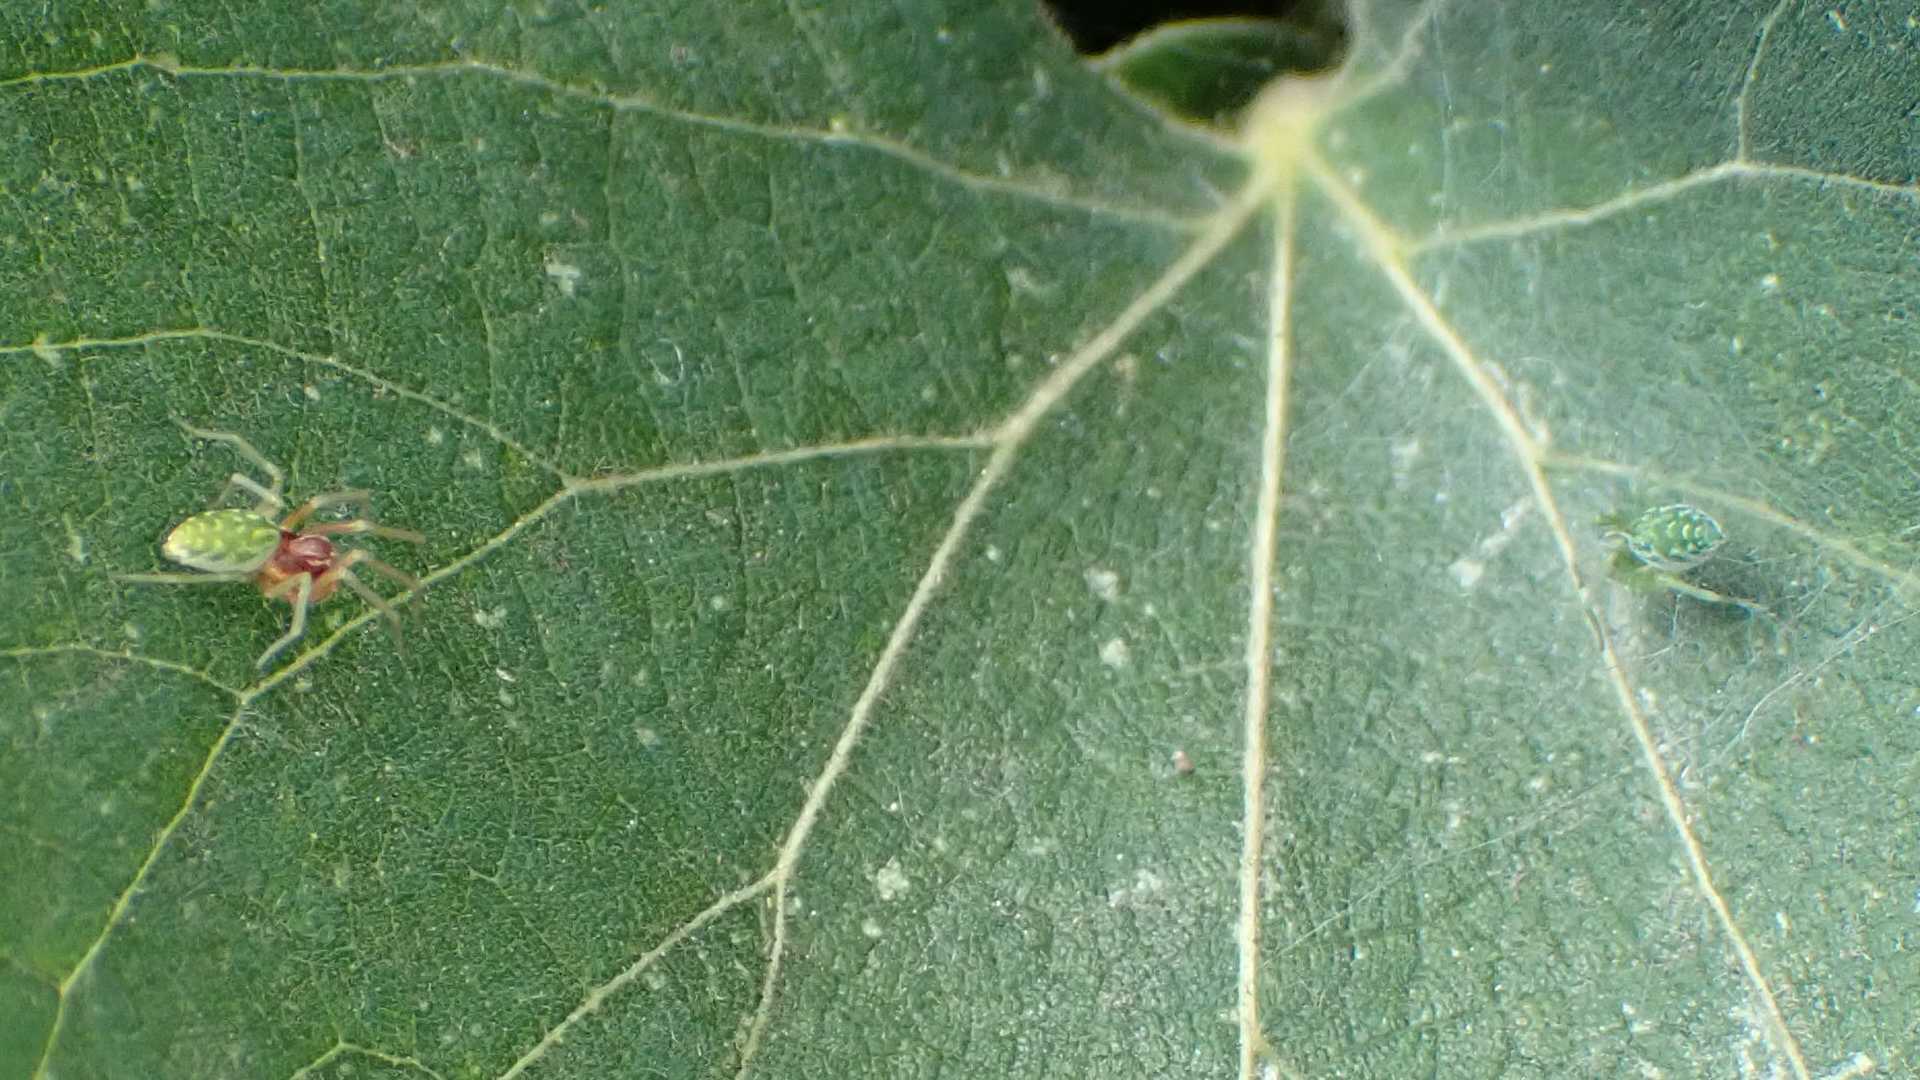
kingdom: Animalia
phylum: Arthropoda
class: Arachnida
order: Araneae
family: Dictynidae
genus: Nigma
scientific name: Nigma walckenaeri
